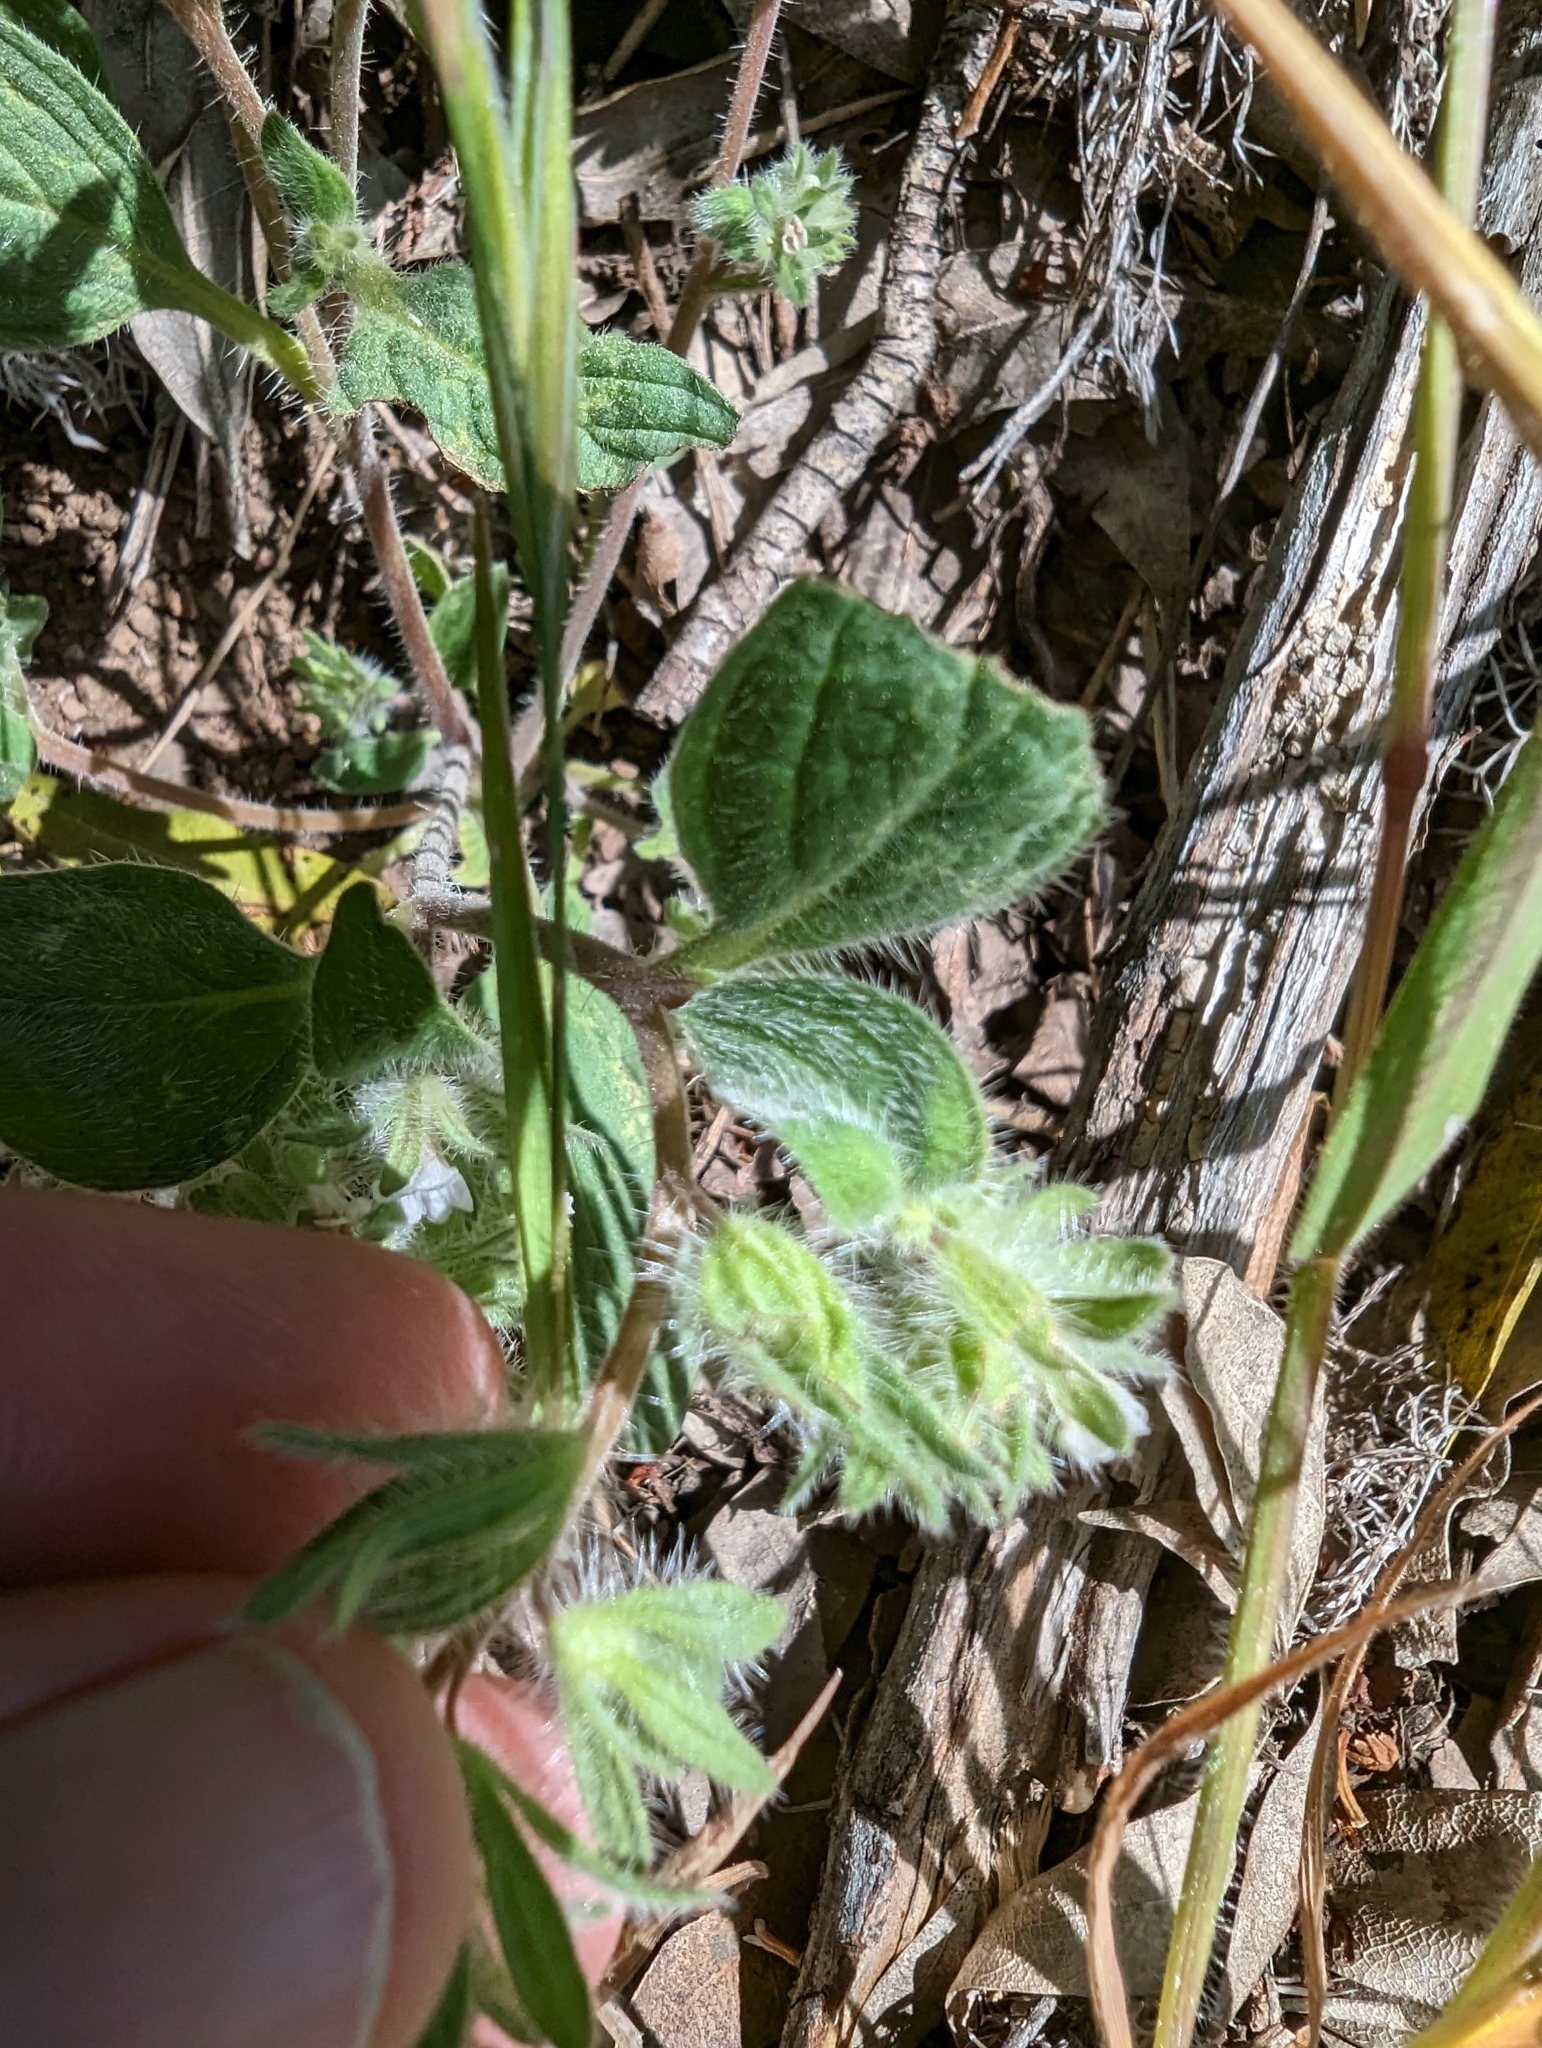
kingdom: Plantae
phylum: Tracheophyta
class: Magnoliopsida
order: Boraginales
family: Hydrophyllaceae
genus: Phacelia
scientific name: Phacelia phacelioides
